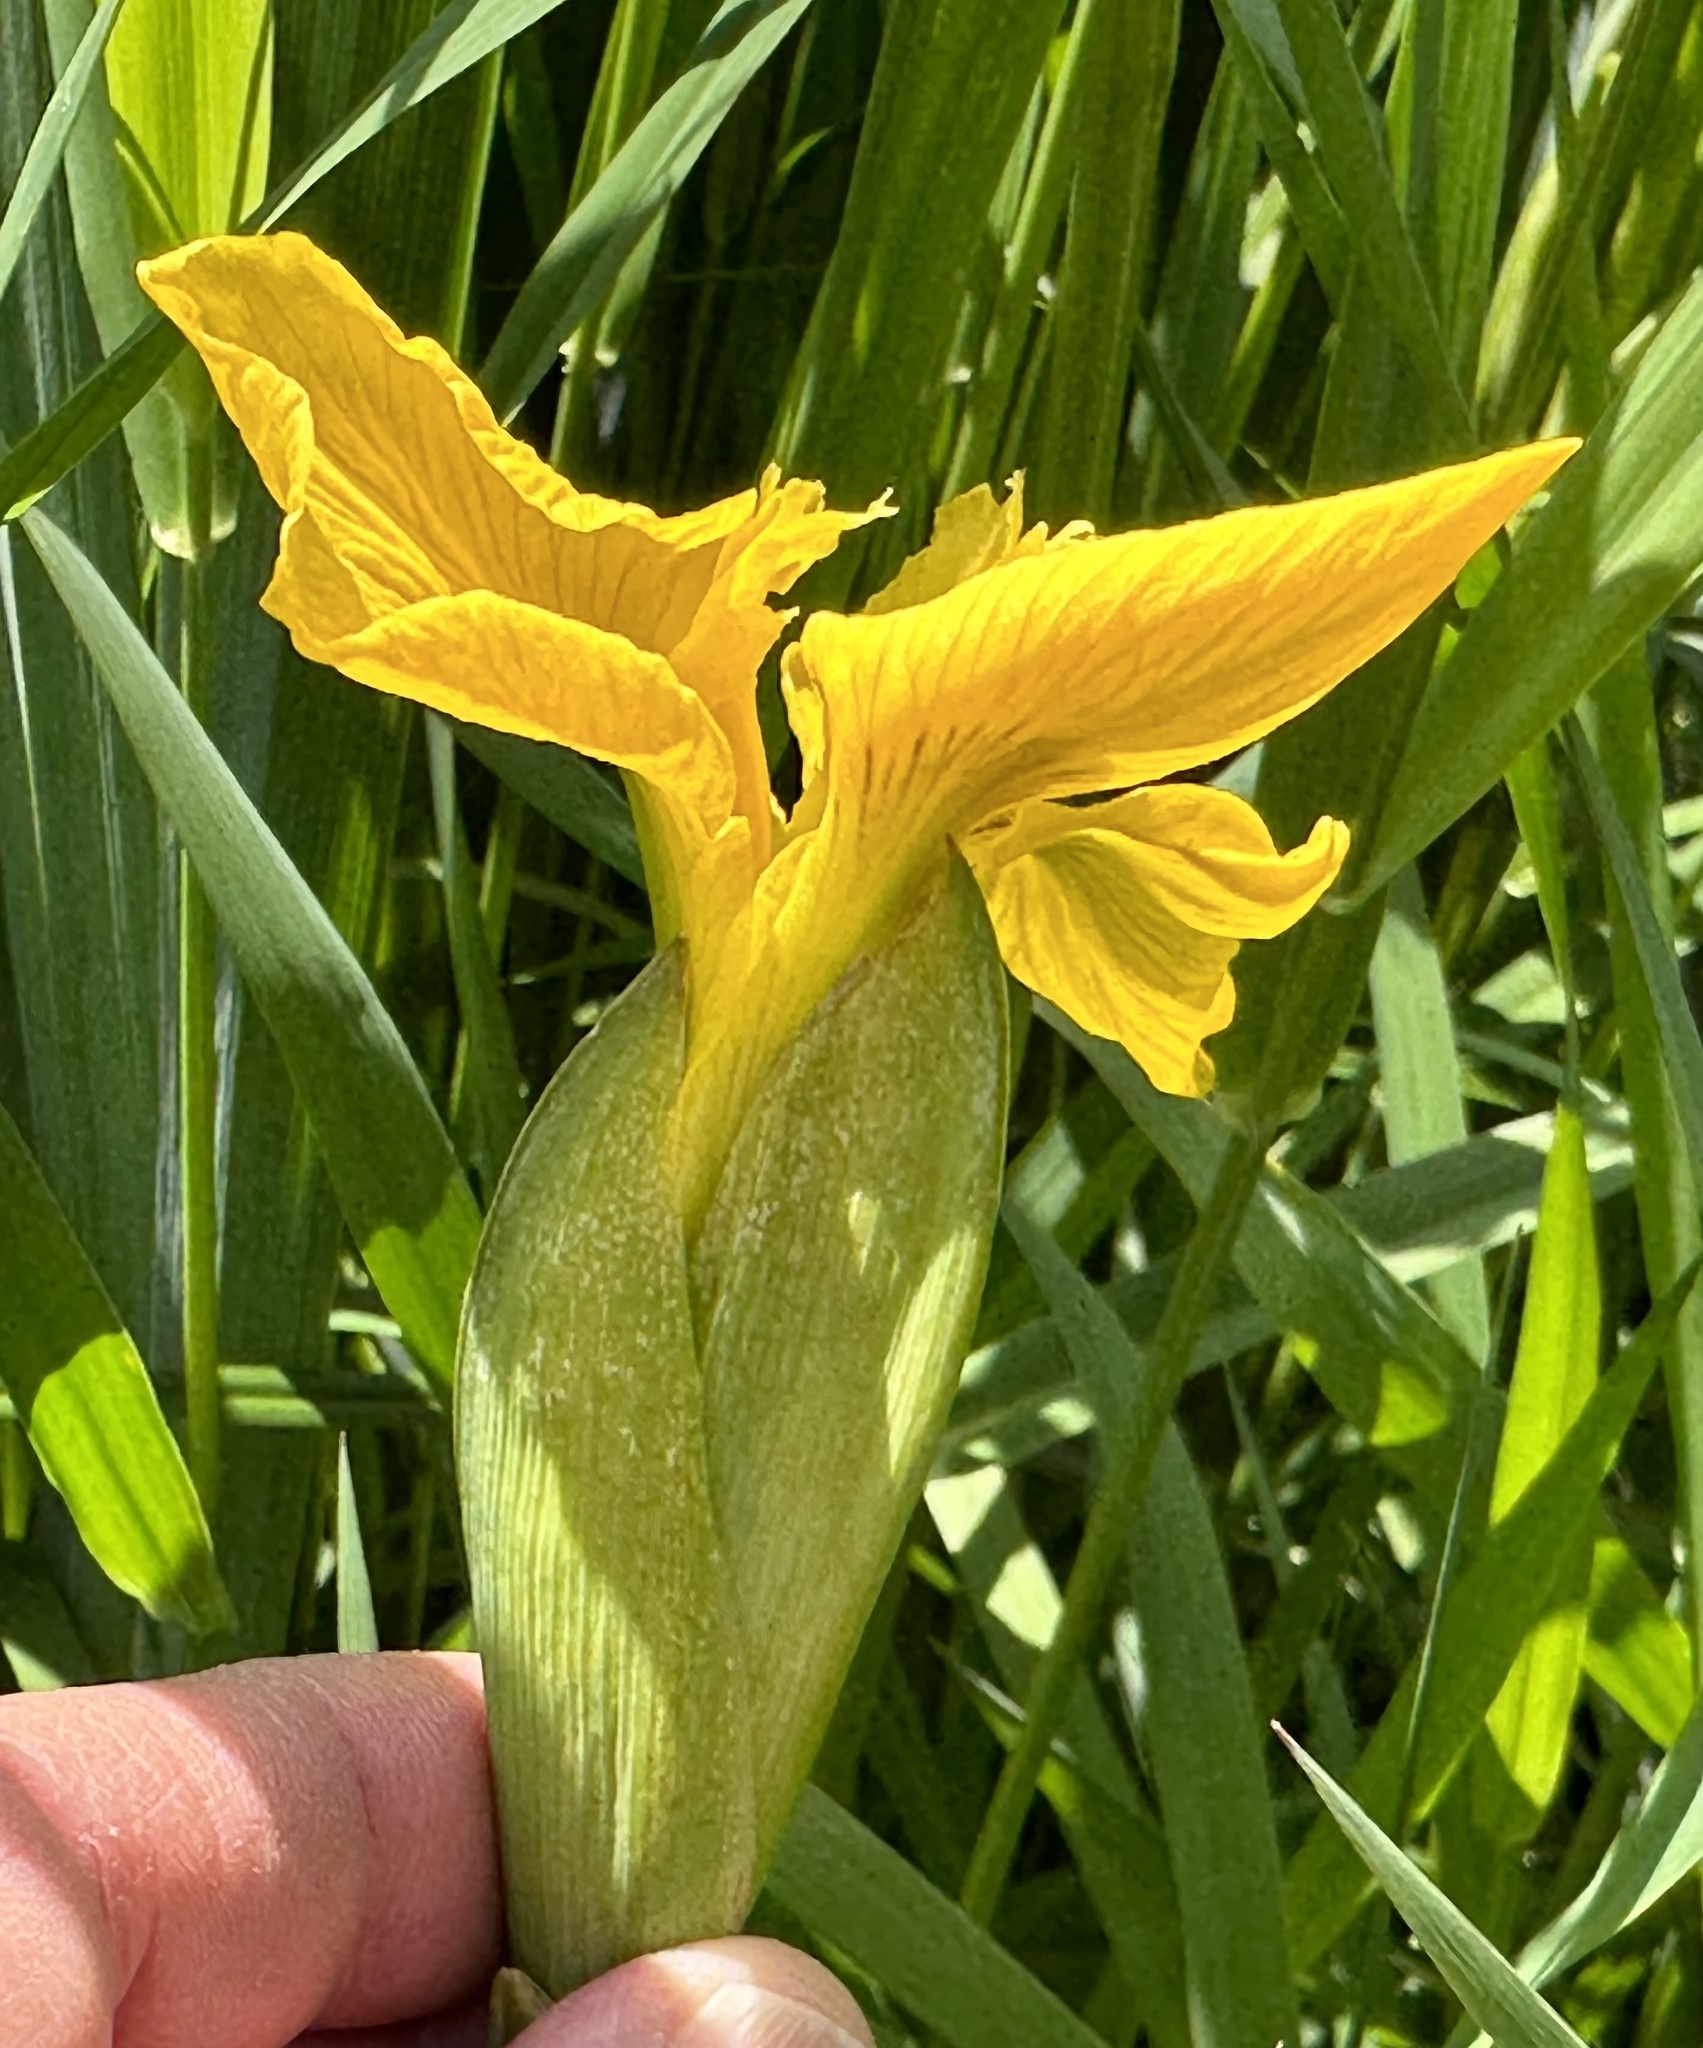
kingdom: Plantae
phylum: Tracheophyta
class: Liliopsida
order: Asparagales
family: Iridaceae
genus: Iris
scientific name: Iris pseudacorus
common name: Yellow flag
